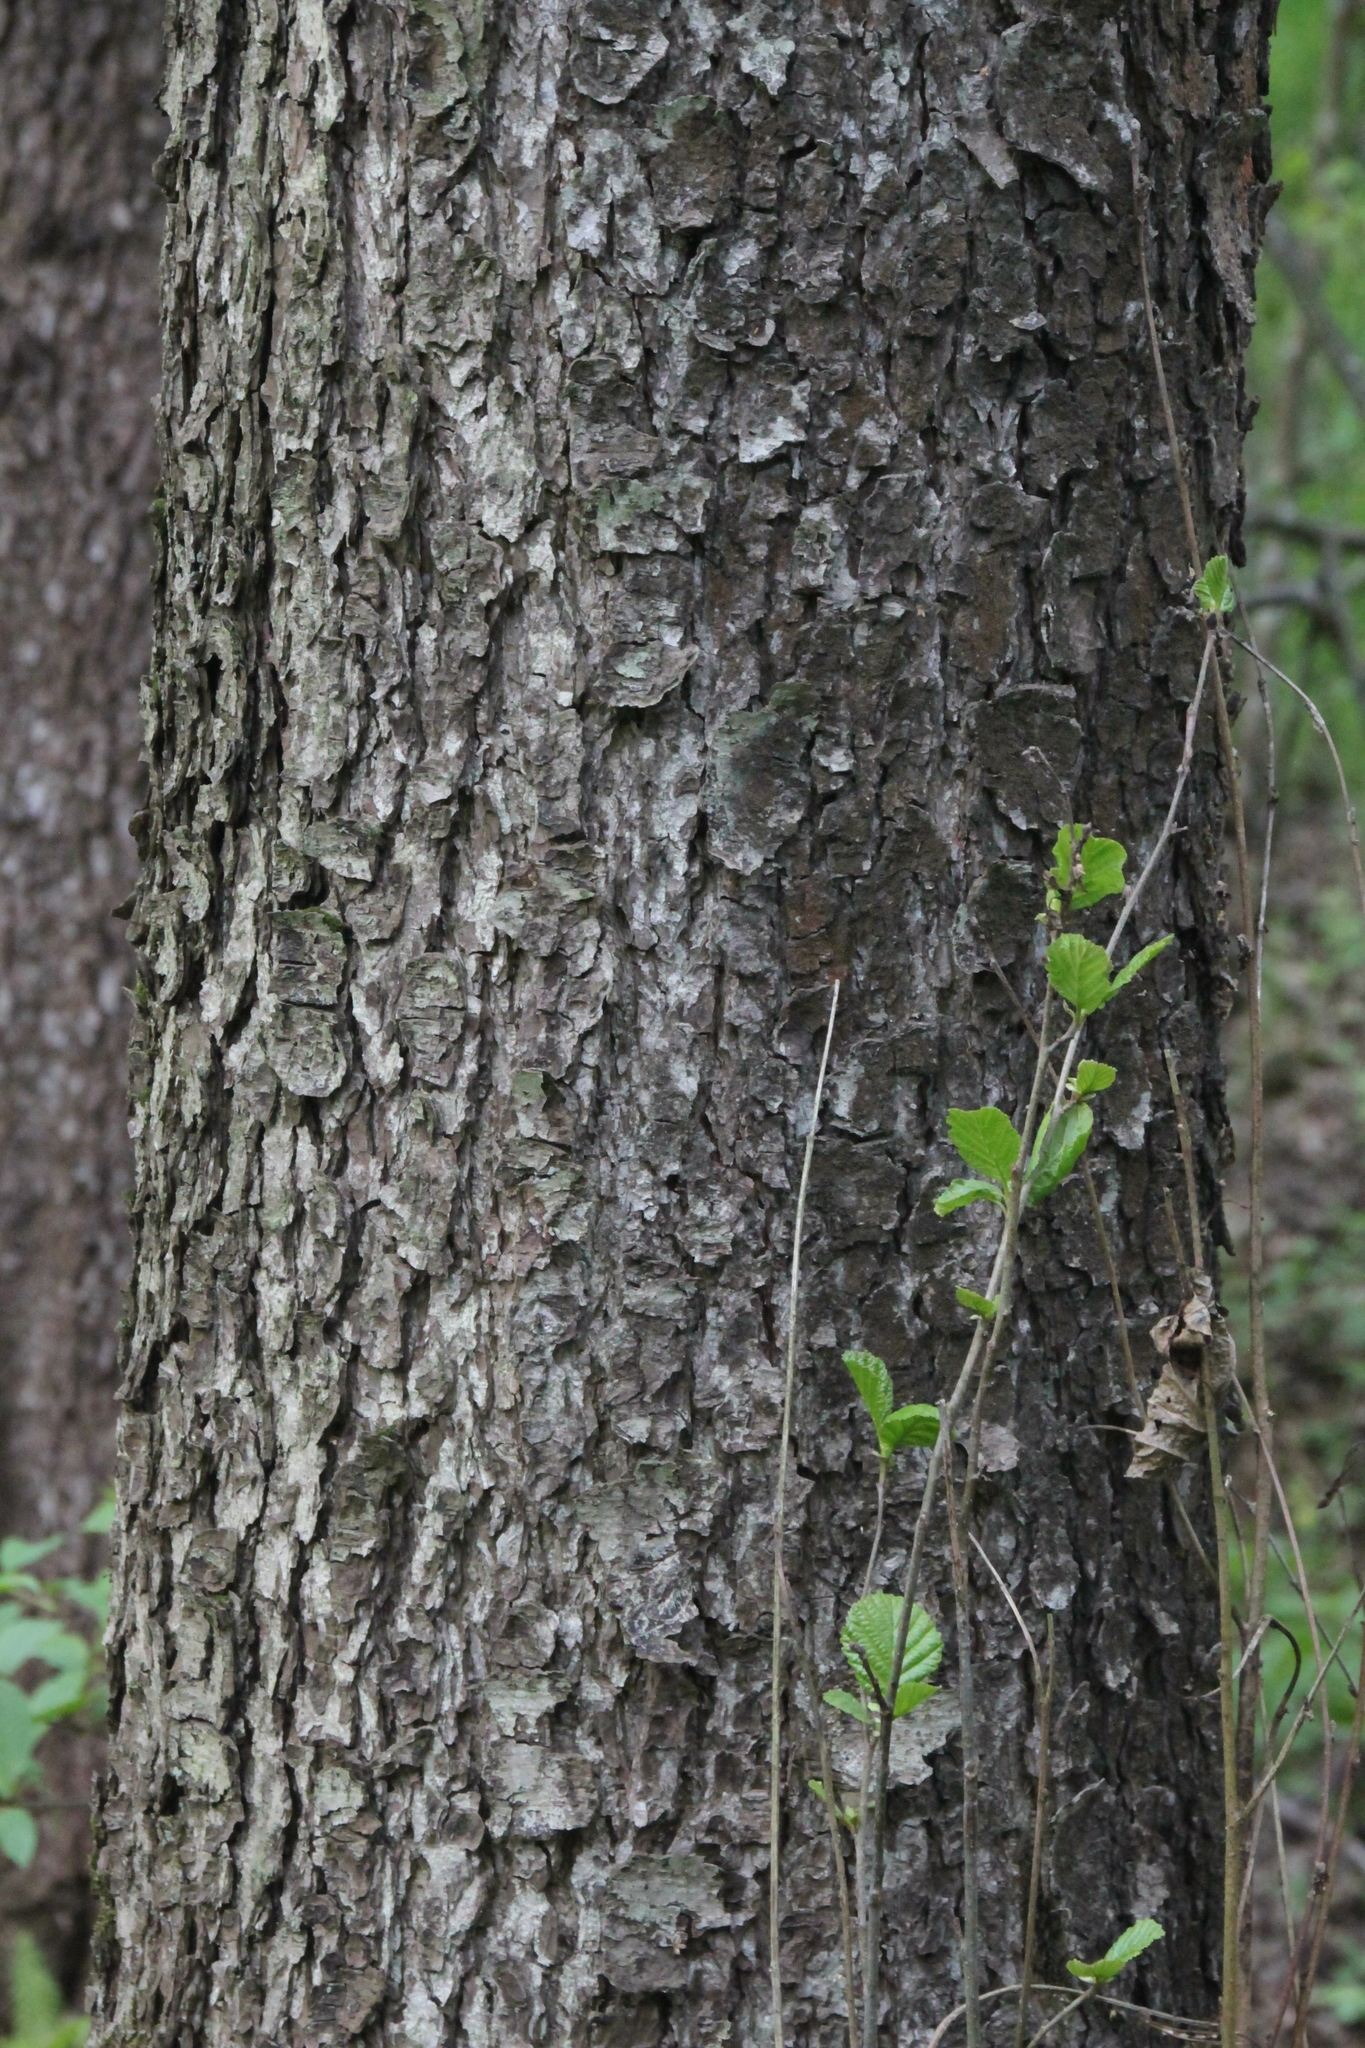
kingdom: Plantae
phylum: Tracheophyta
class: Magnoliopsida
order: Fagales
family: Betulaceae
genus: Alnus
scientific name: Alnus glutinosa
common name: Black alder
